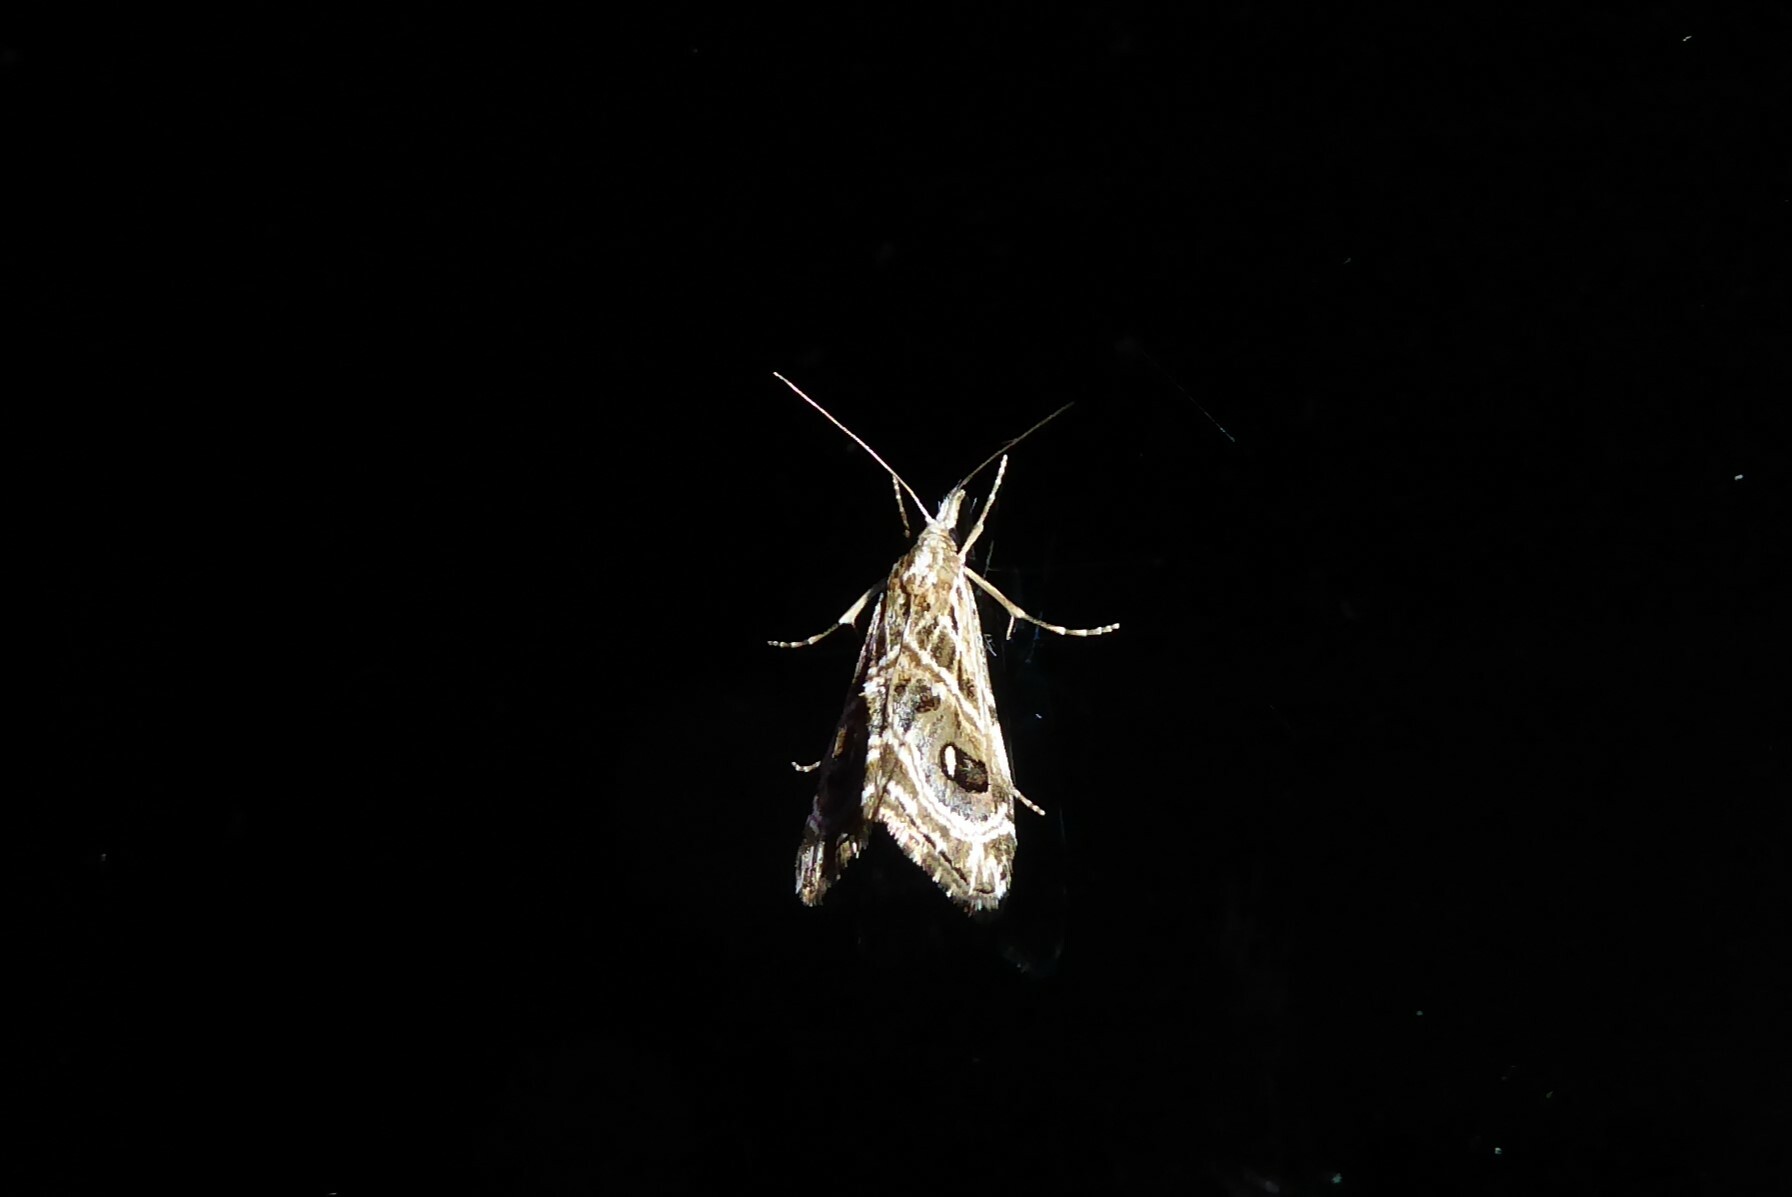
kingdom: Animalia
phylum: Arthropoda
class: Insecta
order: Lepidoptera
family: Crambidae
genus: Gadira
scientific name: Gadira acerella
